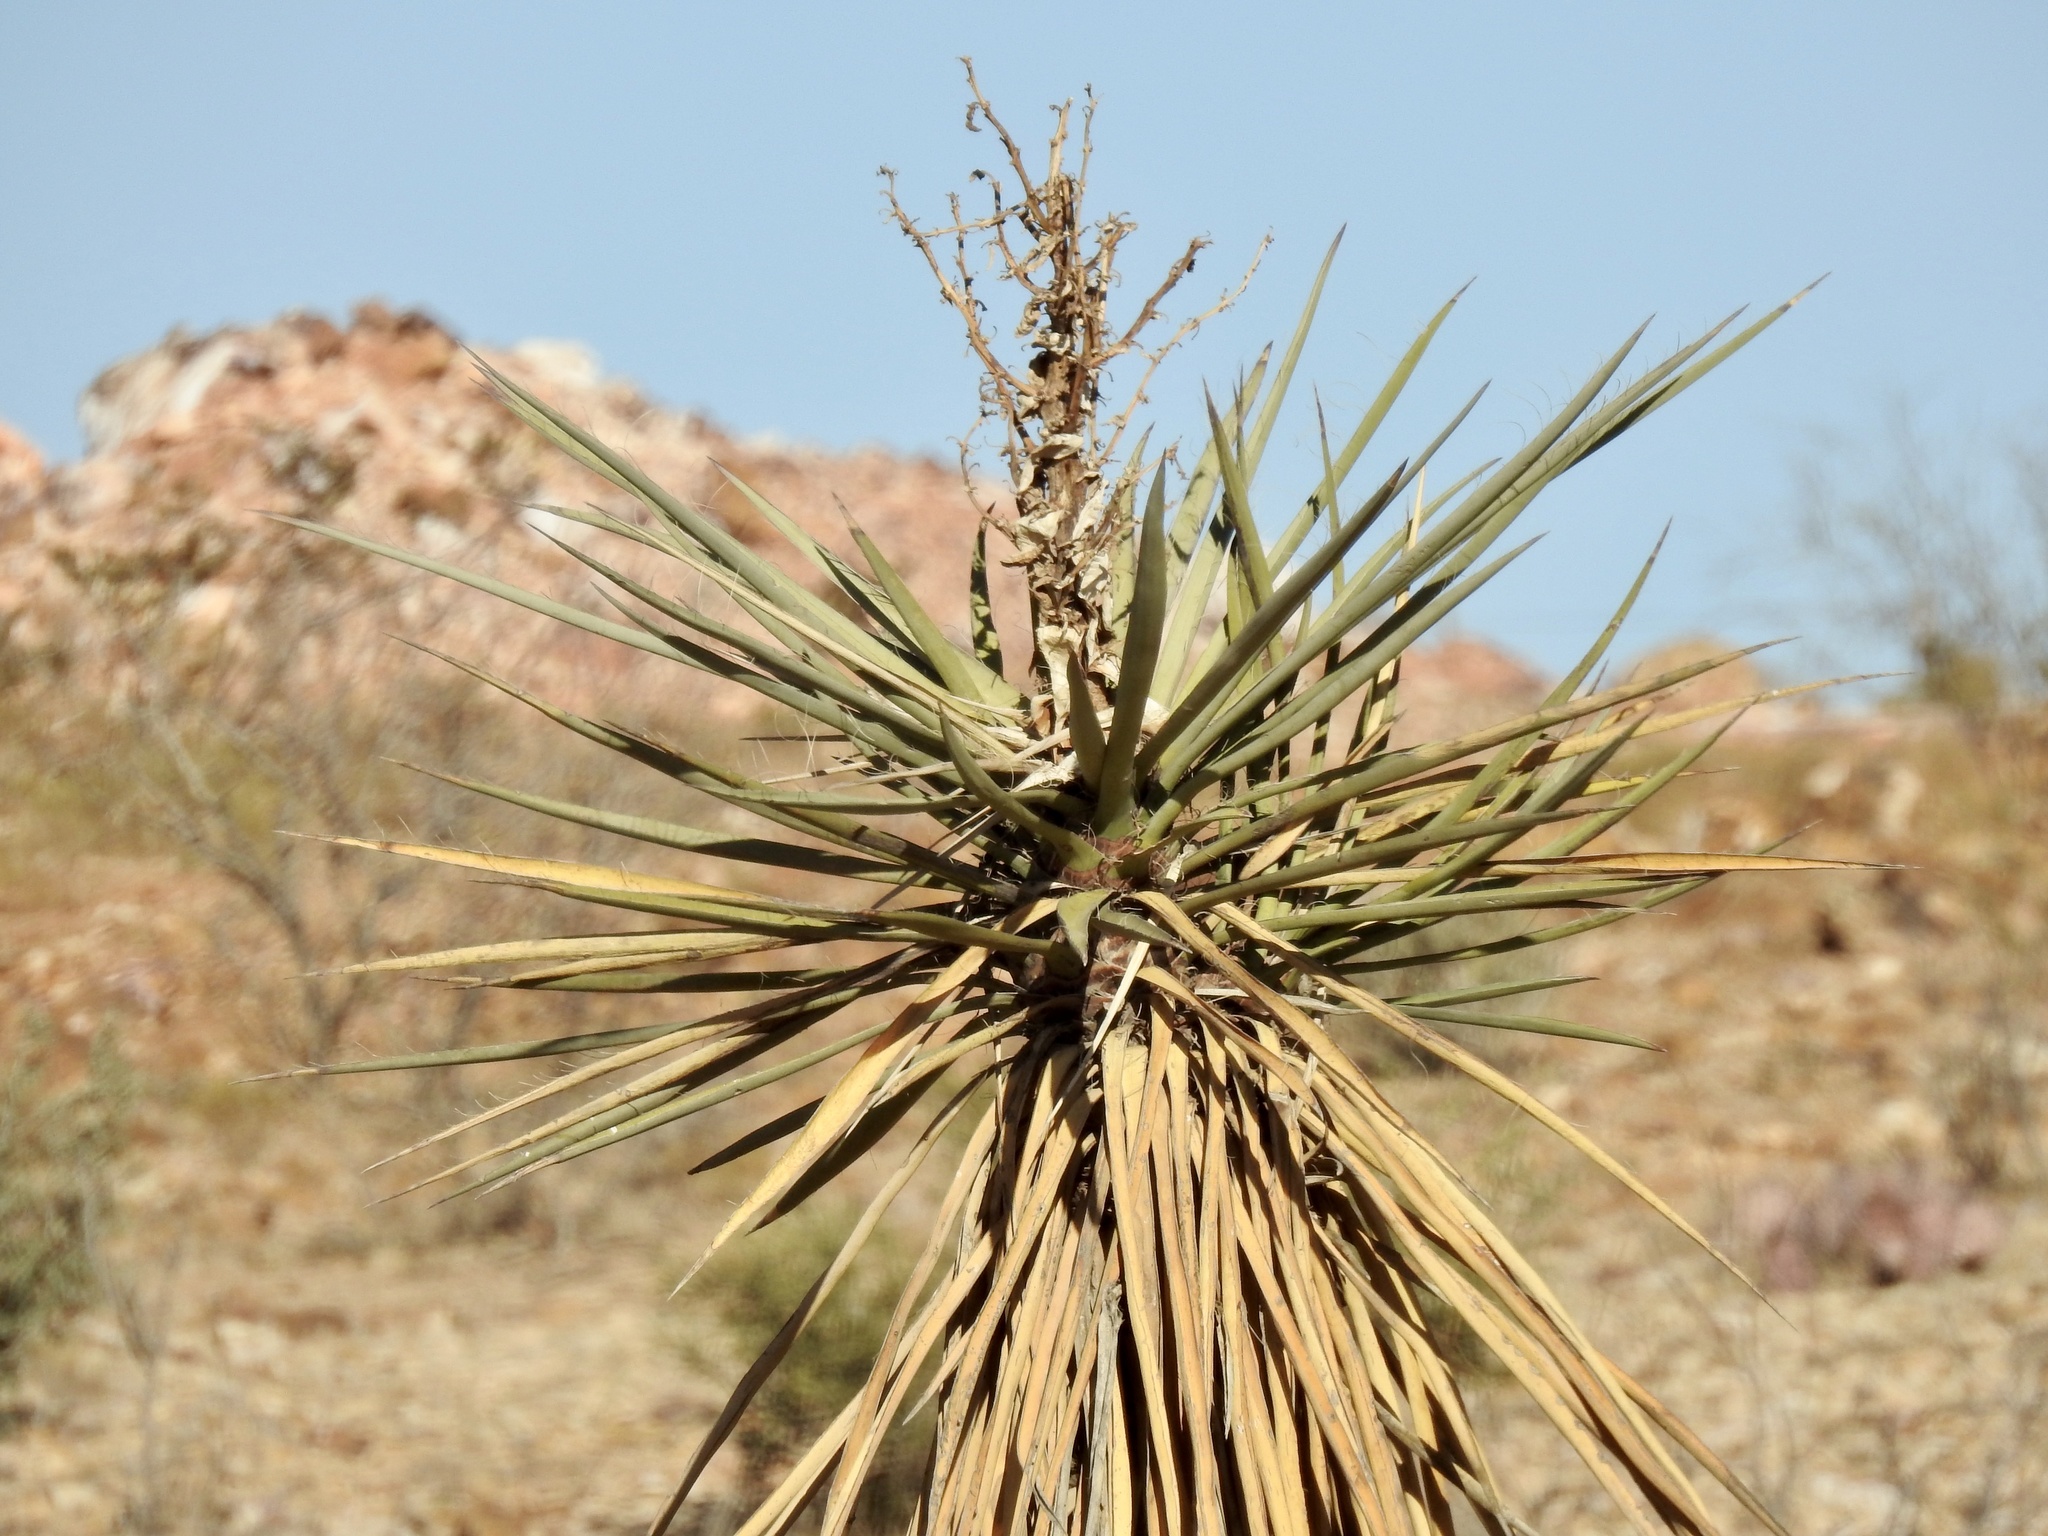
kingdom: Plantae
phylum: Tracheophyta
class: Liliopsida
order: Asparagales
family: Asparagaceae
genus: Yucca
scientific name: Yucca treculiana
